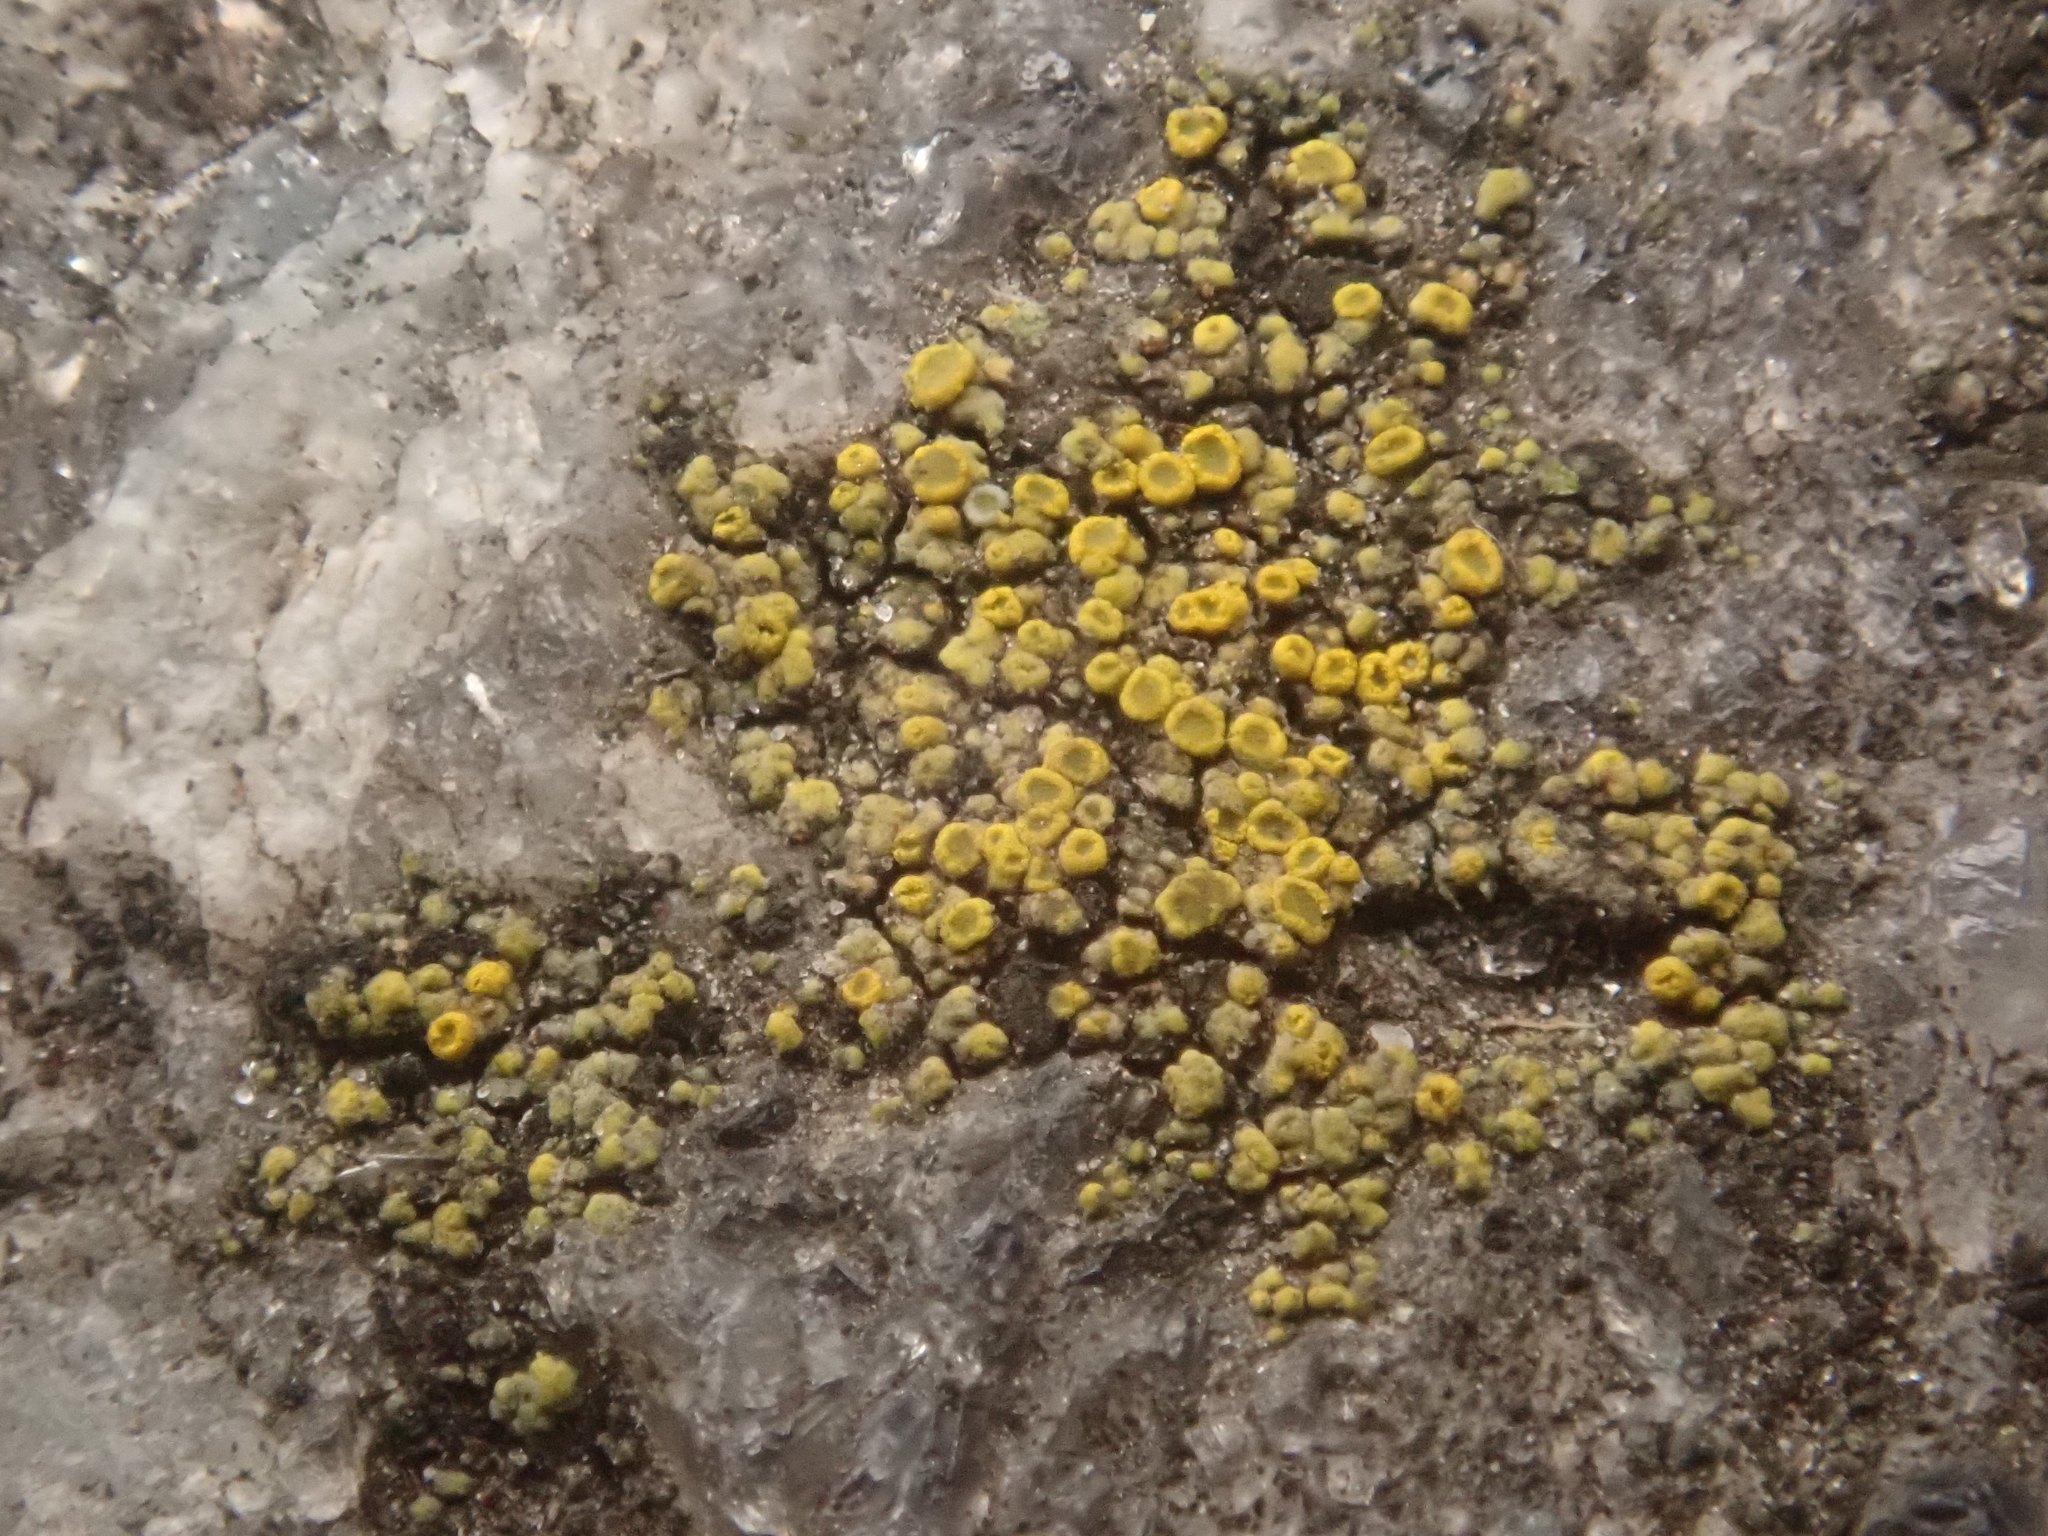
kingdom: Fungi
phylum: Ascomycota
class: Candelariomycetes
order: Candelariales
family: Candelariaceae
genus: Candelariella
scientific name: Candelariella vitellina
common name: Common goldspeck
